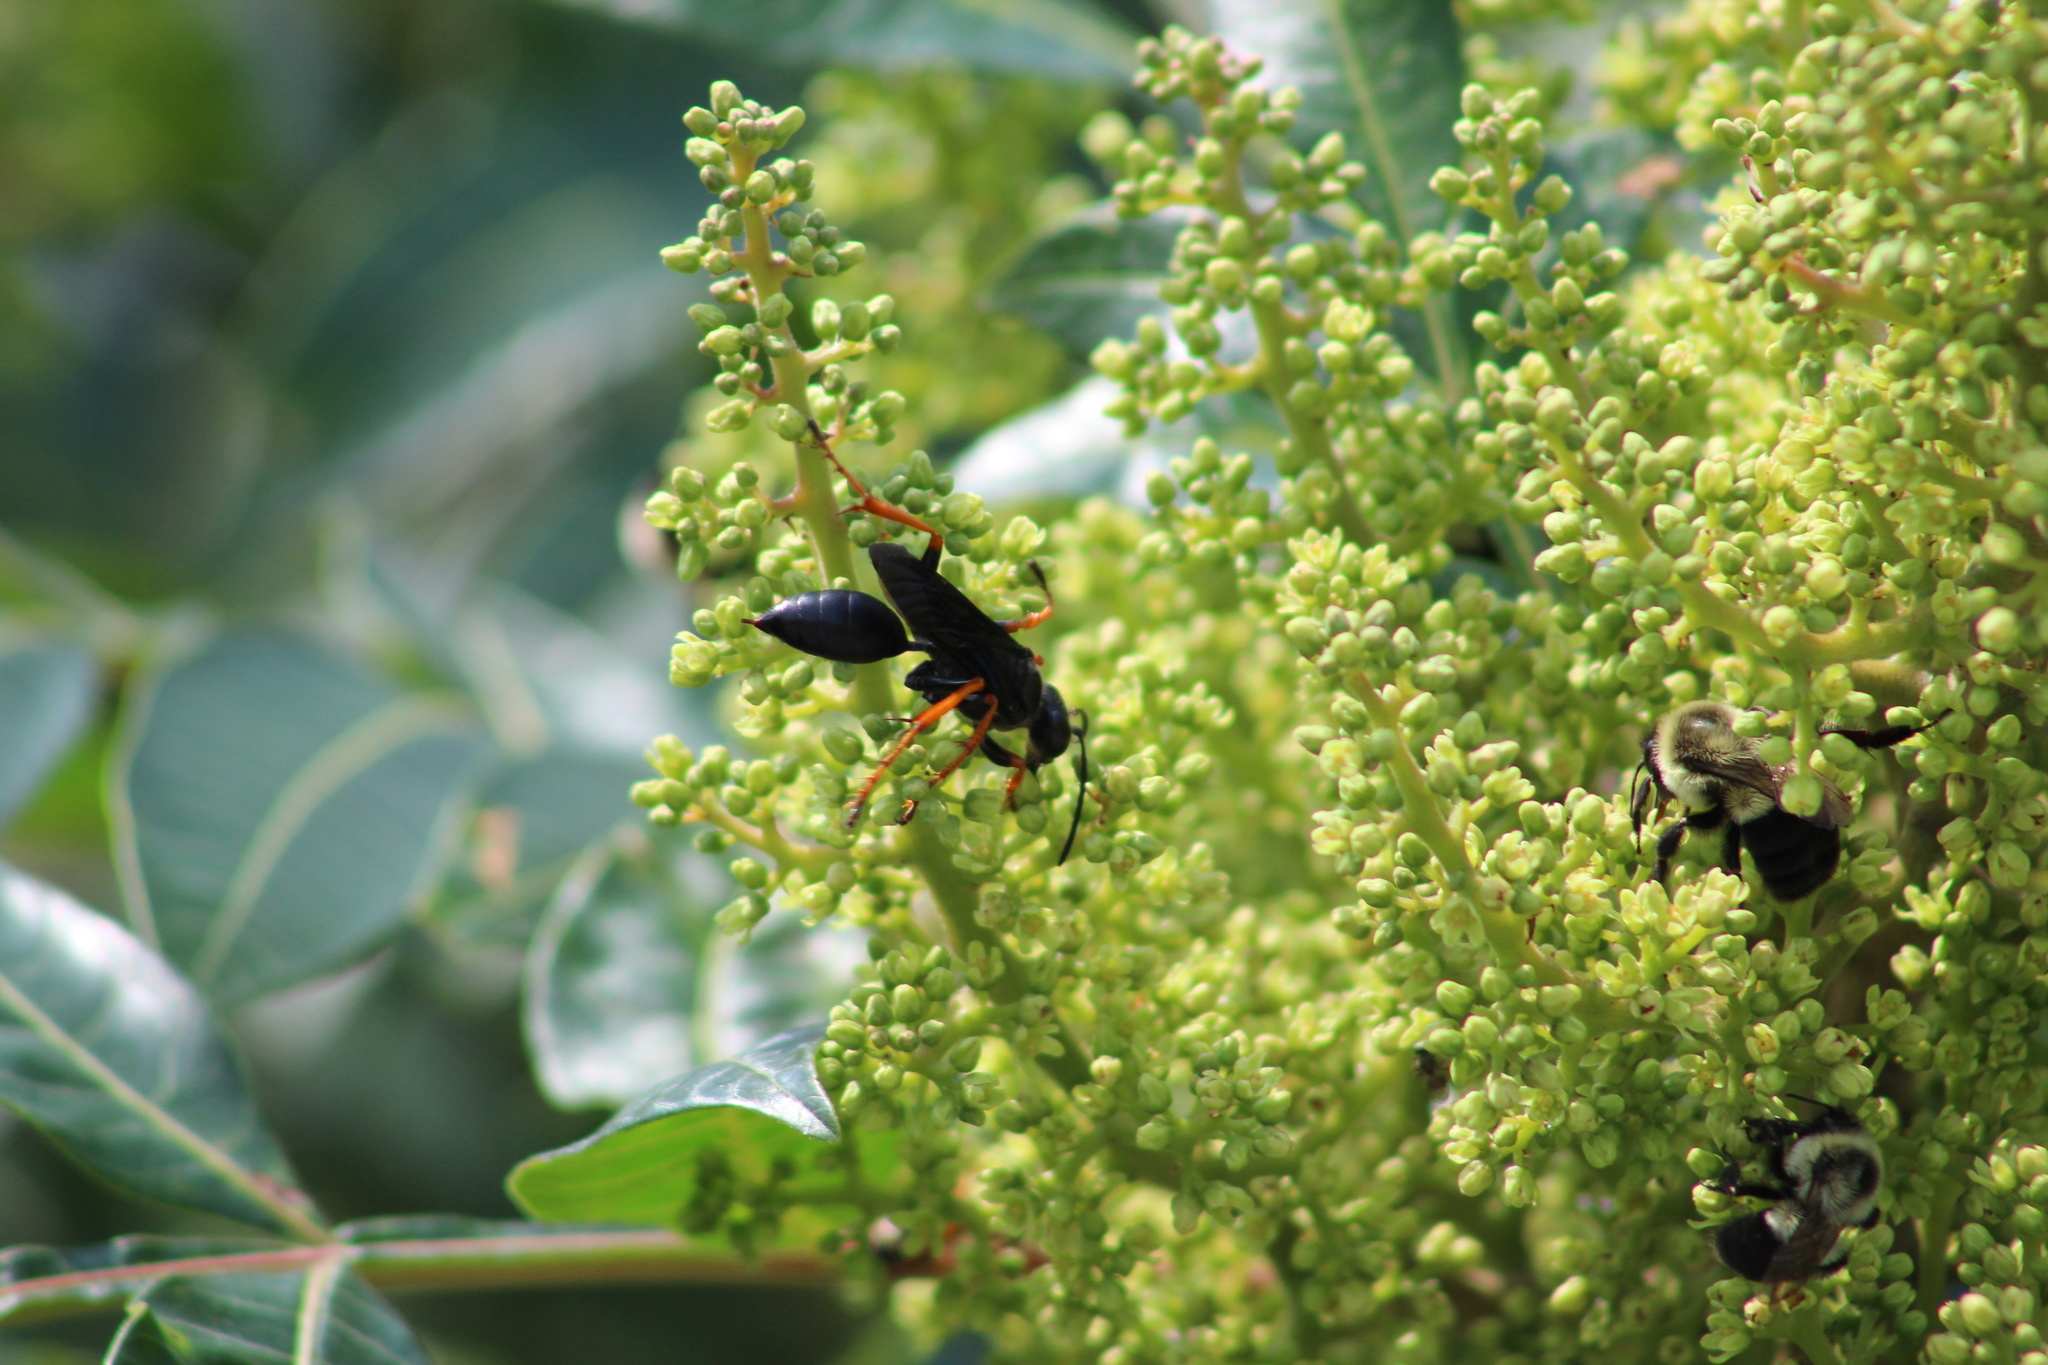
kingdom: Animalia
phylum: Arthropoda
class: Insecta
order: Hymenoptera
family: Sphecidae
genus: Sphex
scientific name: Sphex nudus
